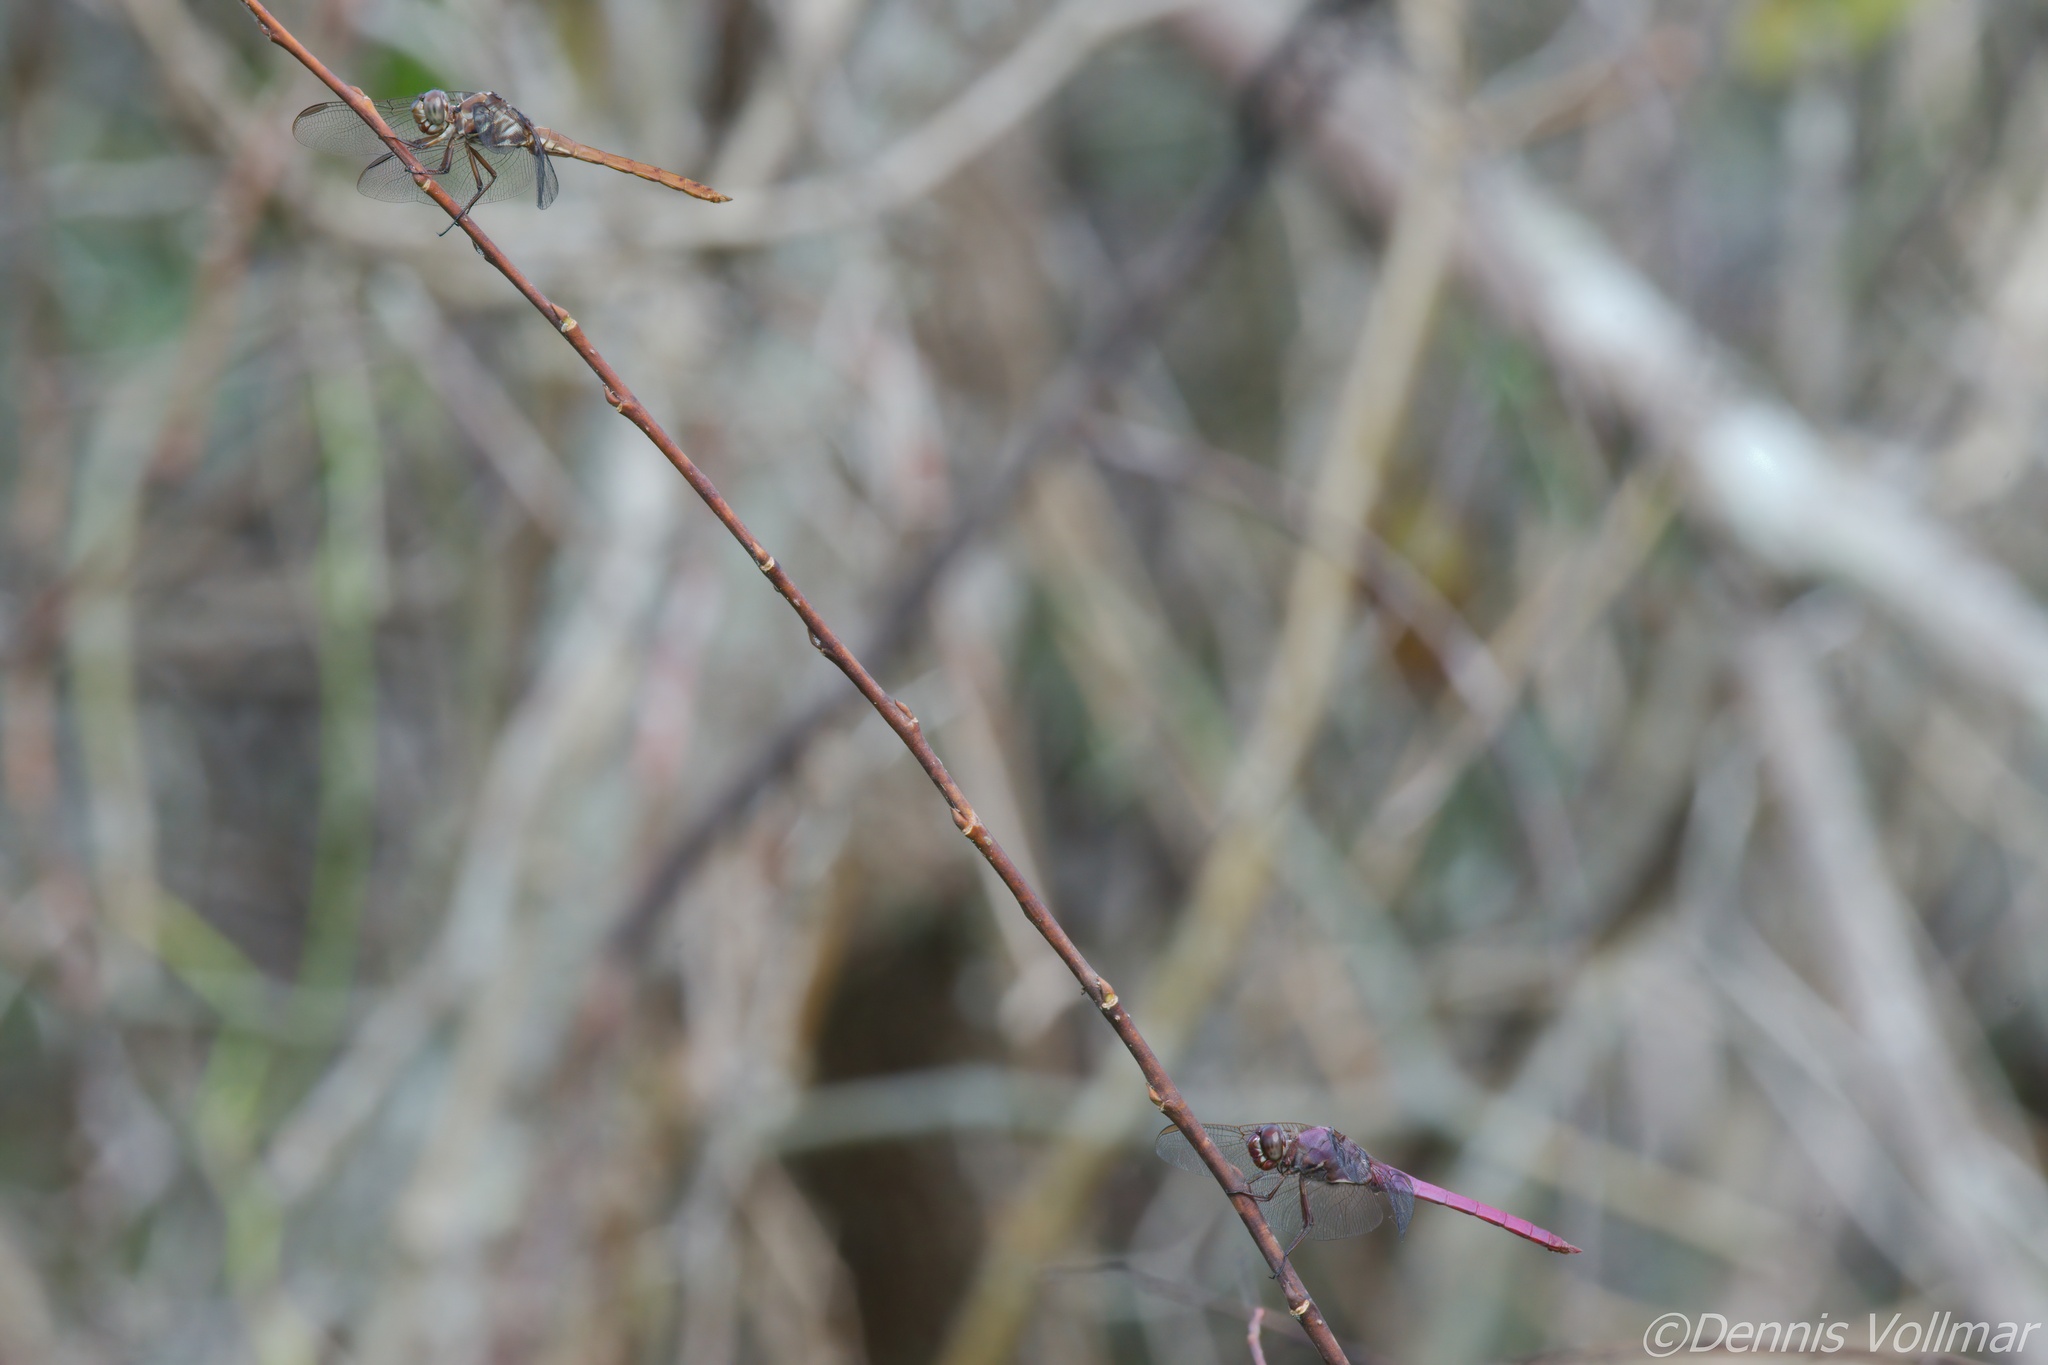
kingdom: Animalia
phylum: Arthropoda
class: Insecta
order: Odonata
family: Libellulidae
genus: Orthemis
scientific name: Orthemis ferruginea
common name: Roseate skimmer
